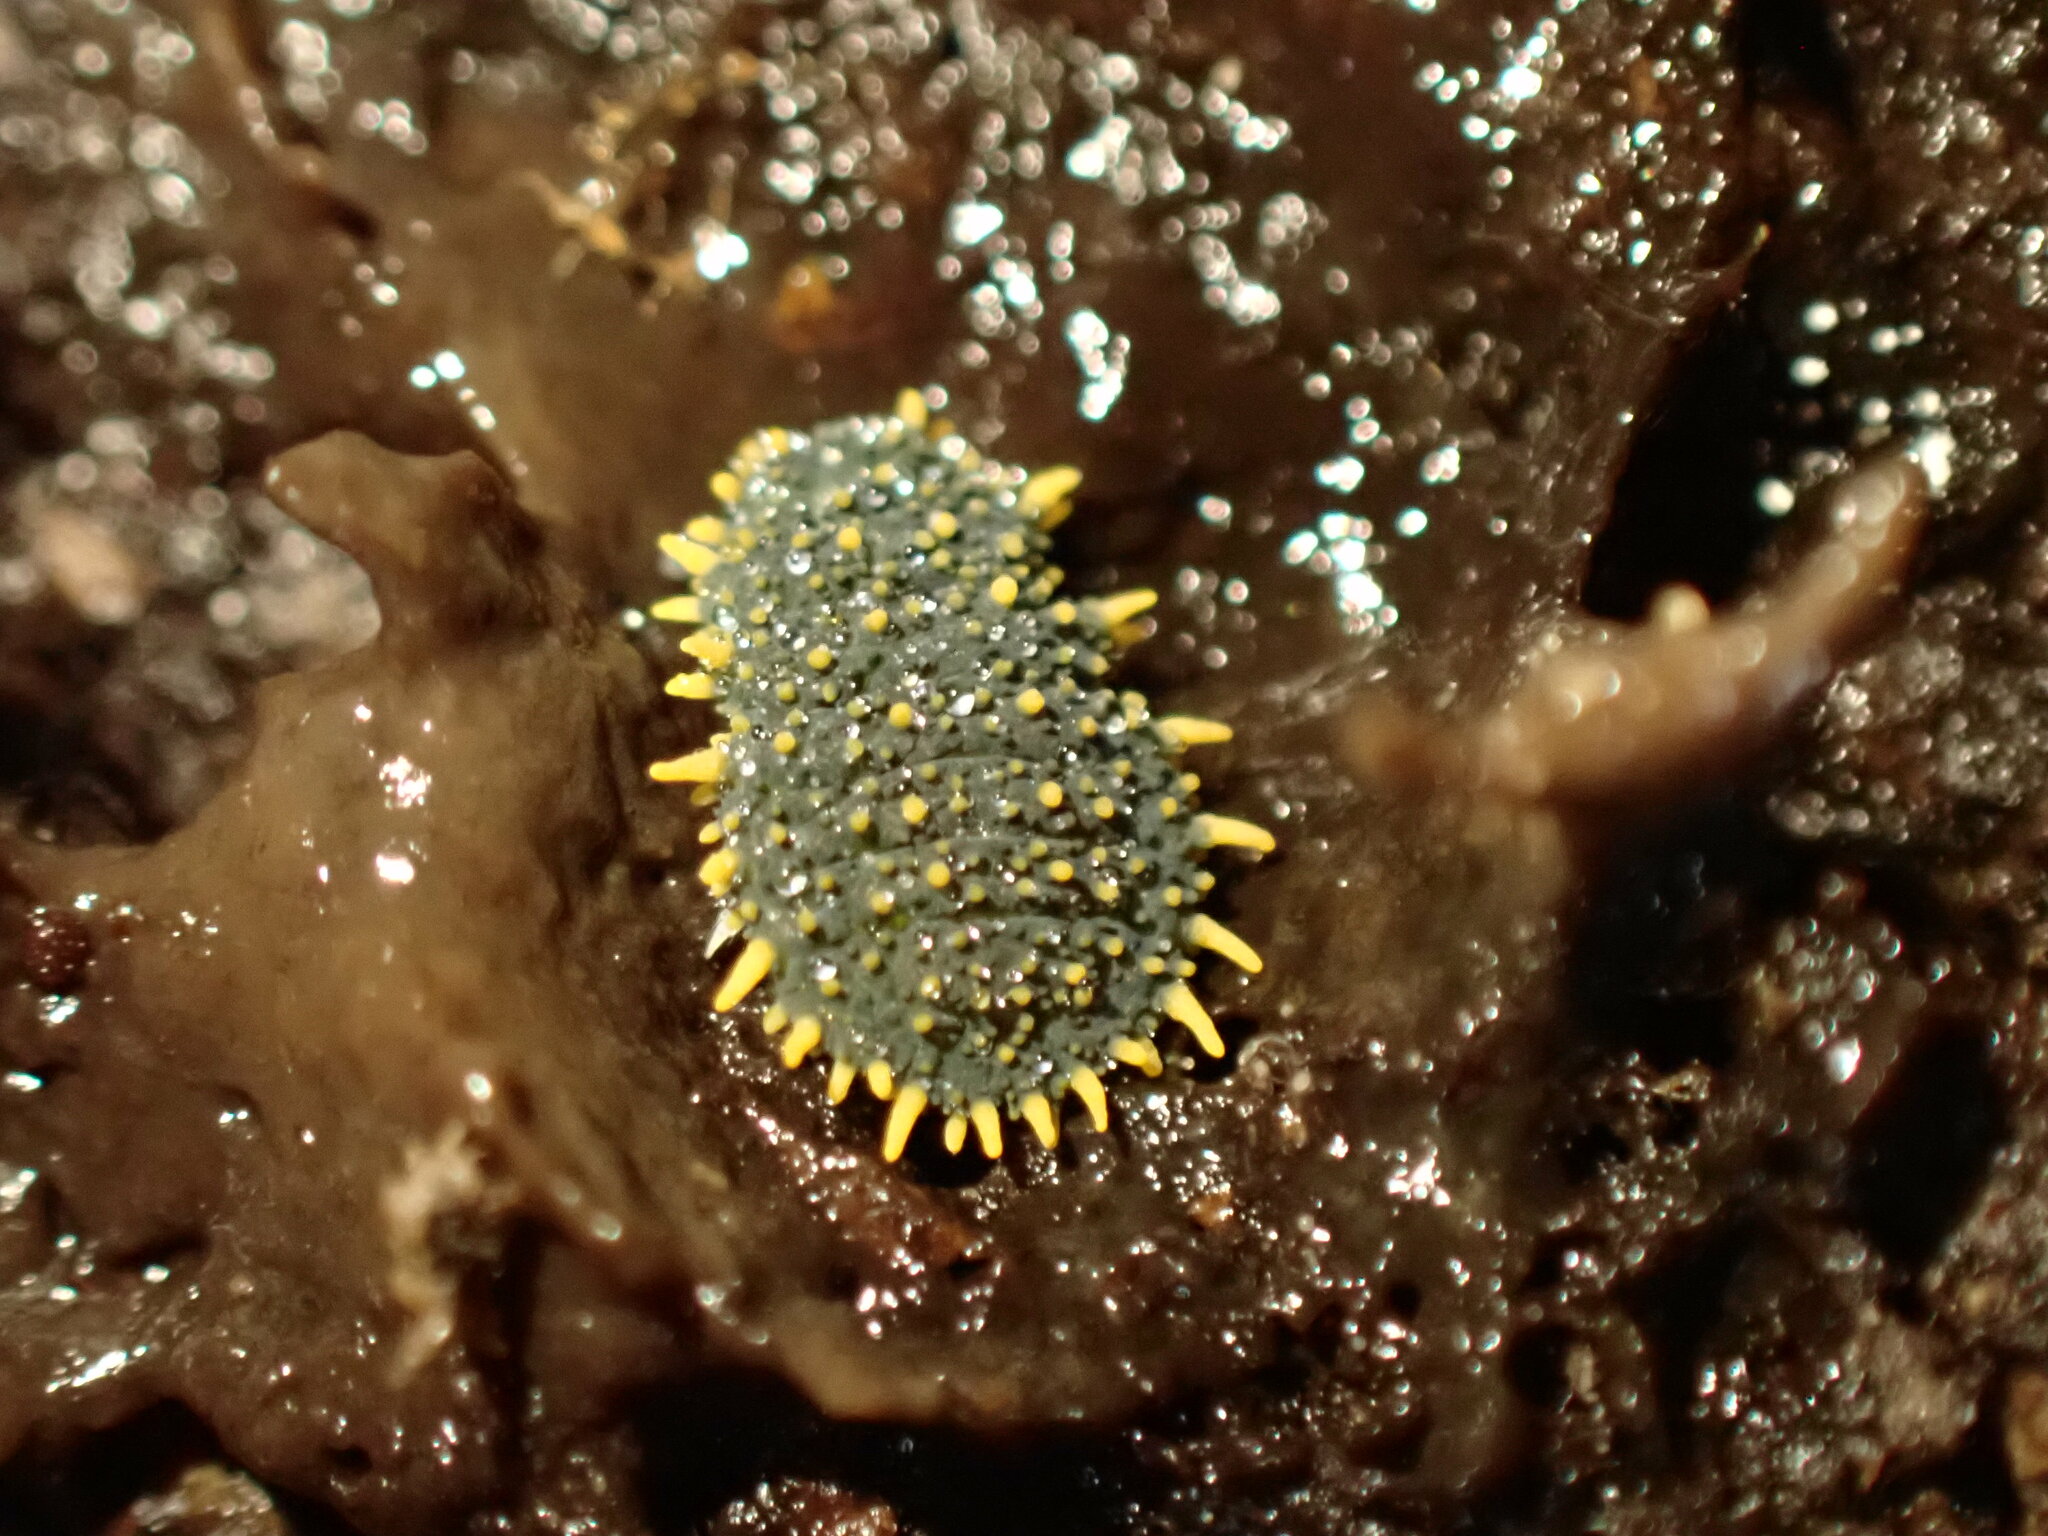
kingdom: Animalia
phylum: Arthropoda
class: Collembola
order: Poduromorpha
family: Neanuridae
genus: Holacanthella
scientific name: Holacanthella paucispinosa
